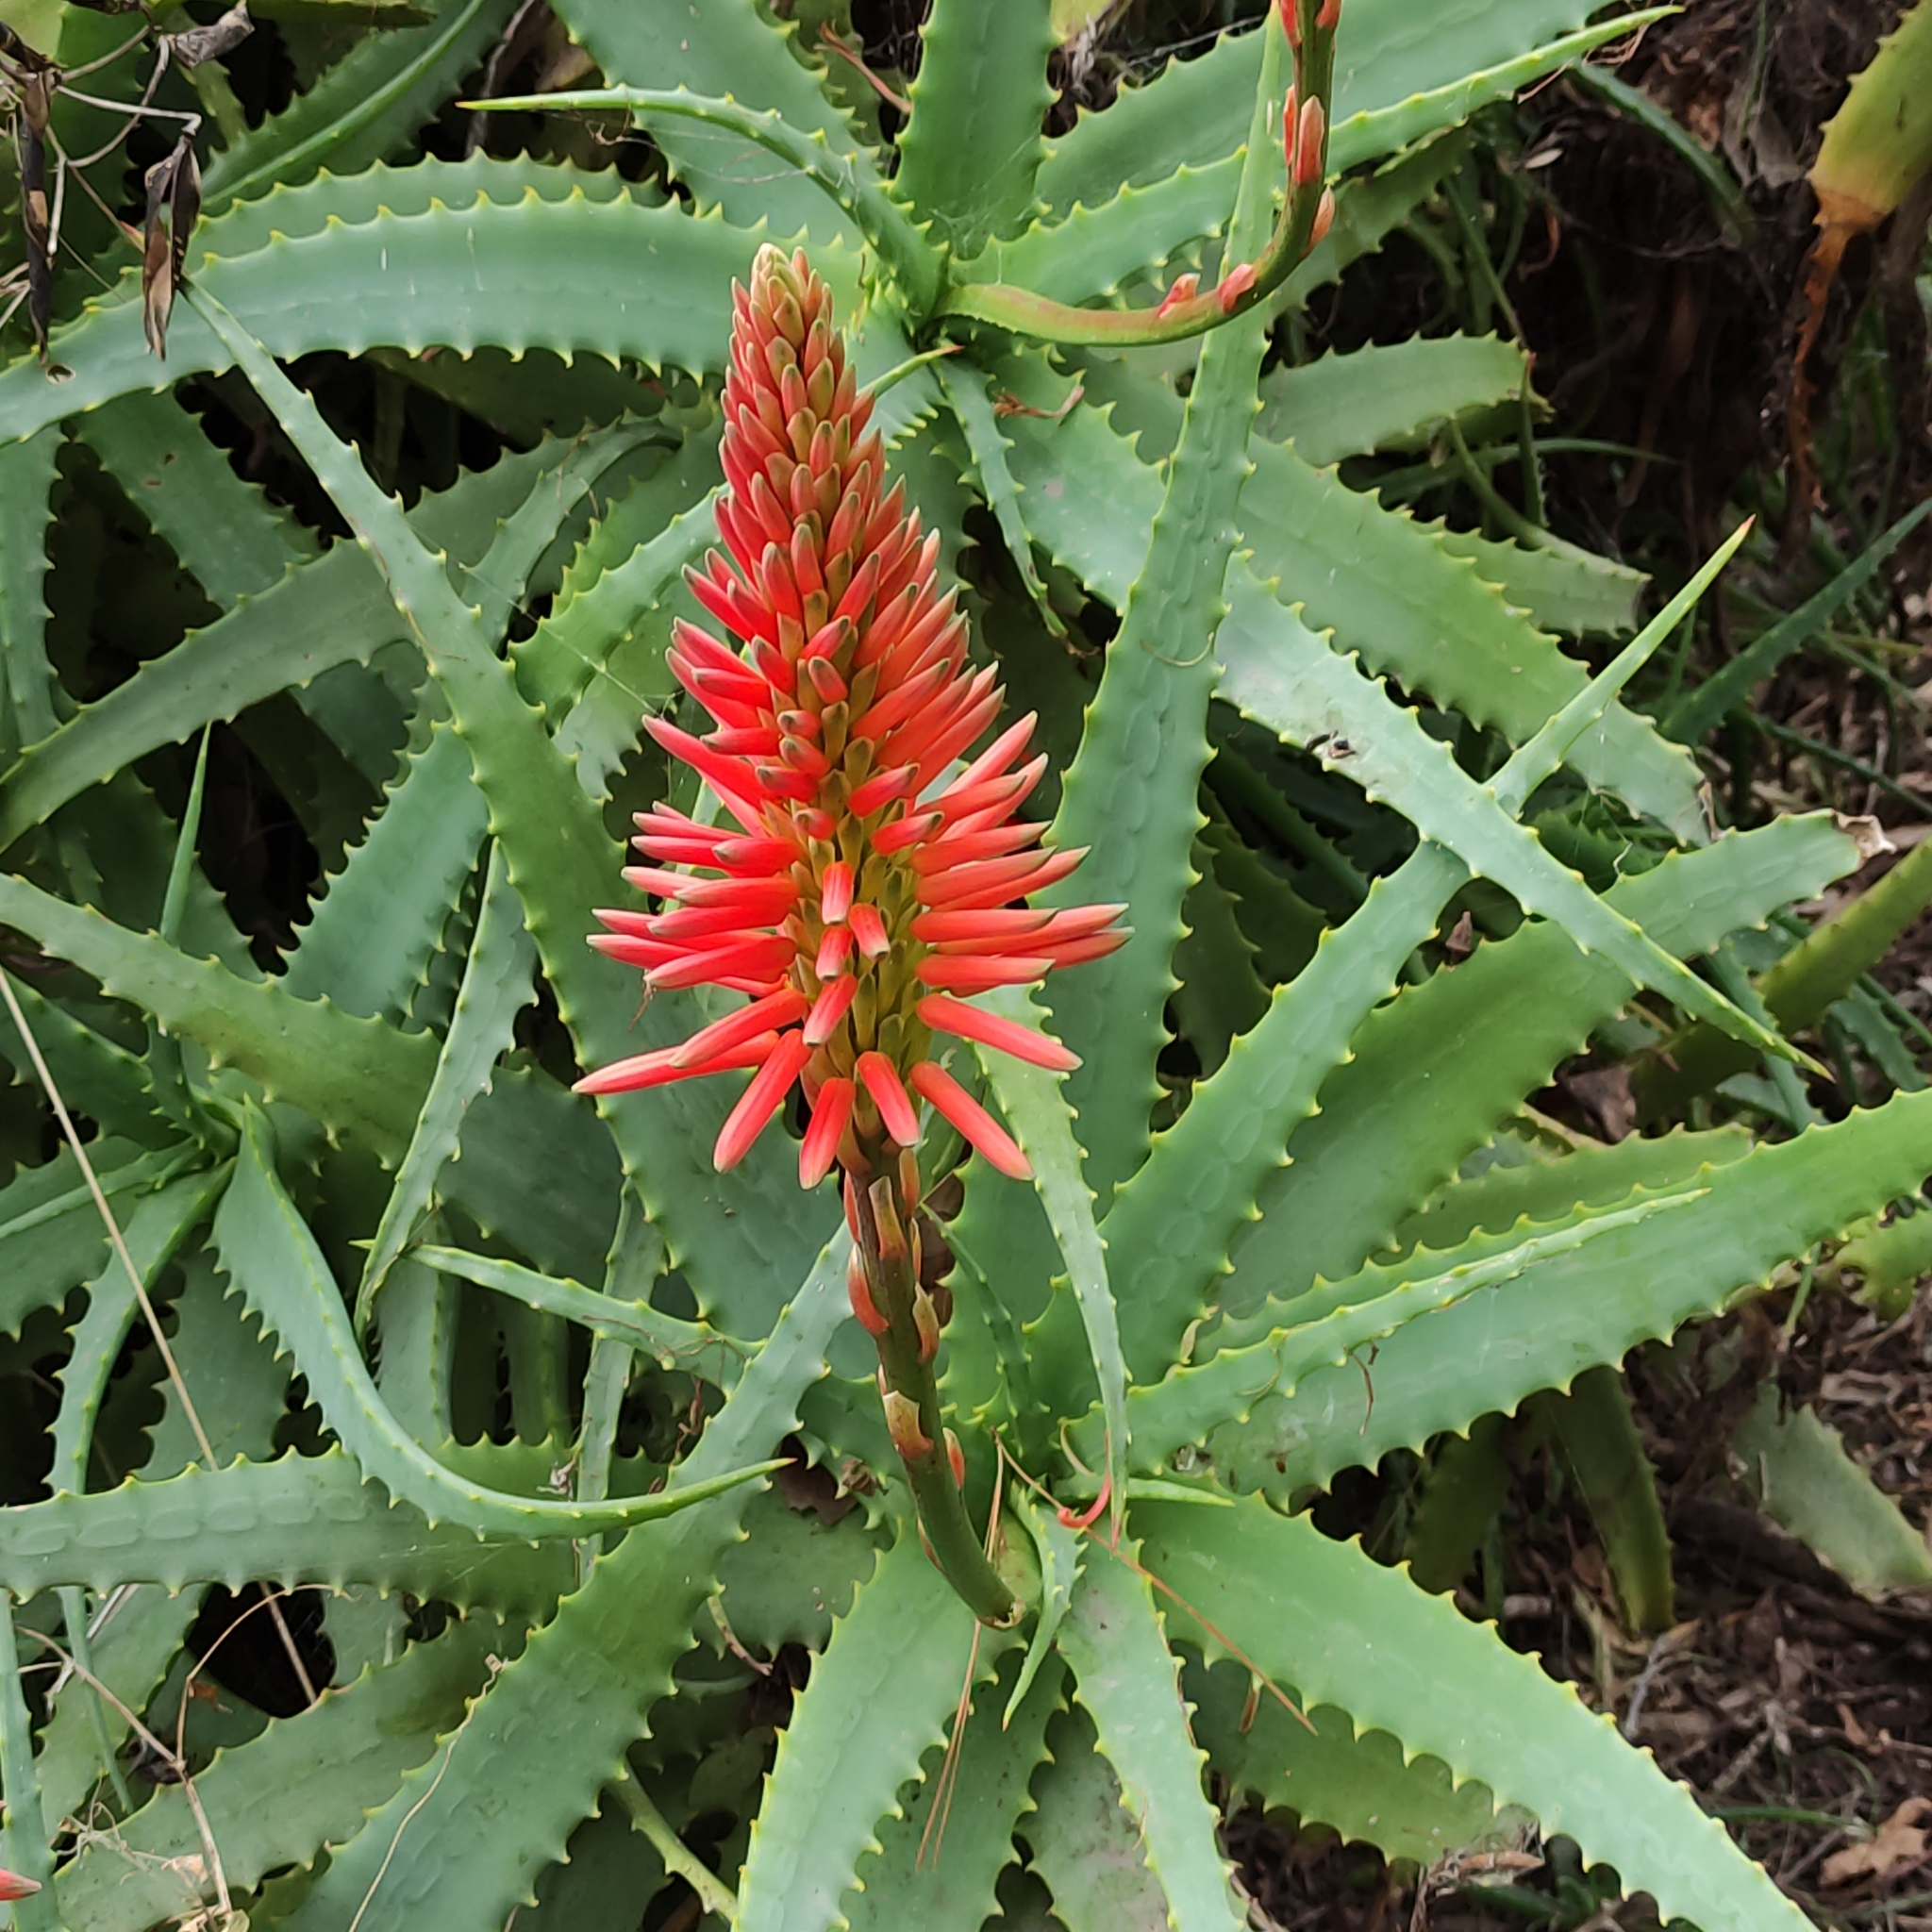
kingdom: Plantae
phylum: Tracheophyta
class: Liliopsida
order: Asparagales
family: Asphodelaceae
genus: Aloe
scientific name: Aloe arborescens
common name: Candelabra aloe
